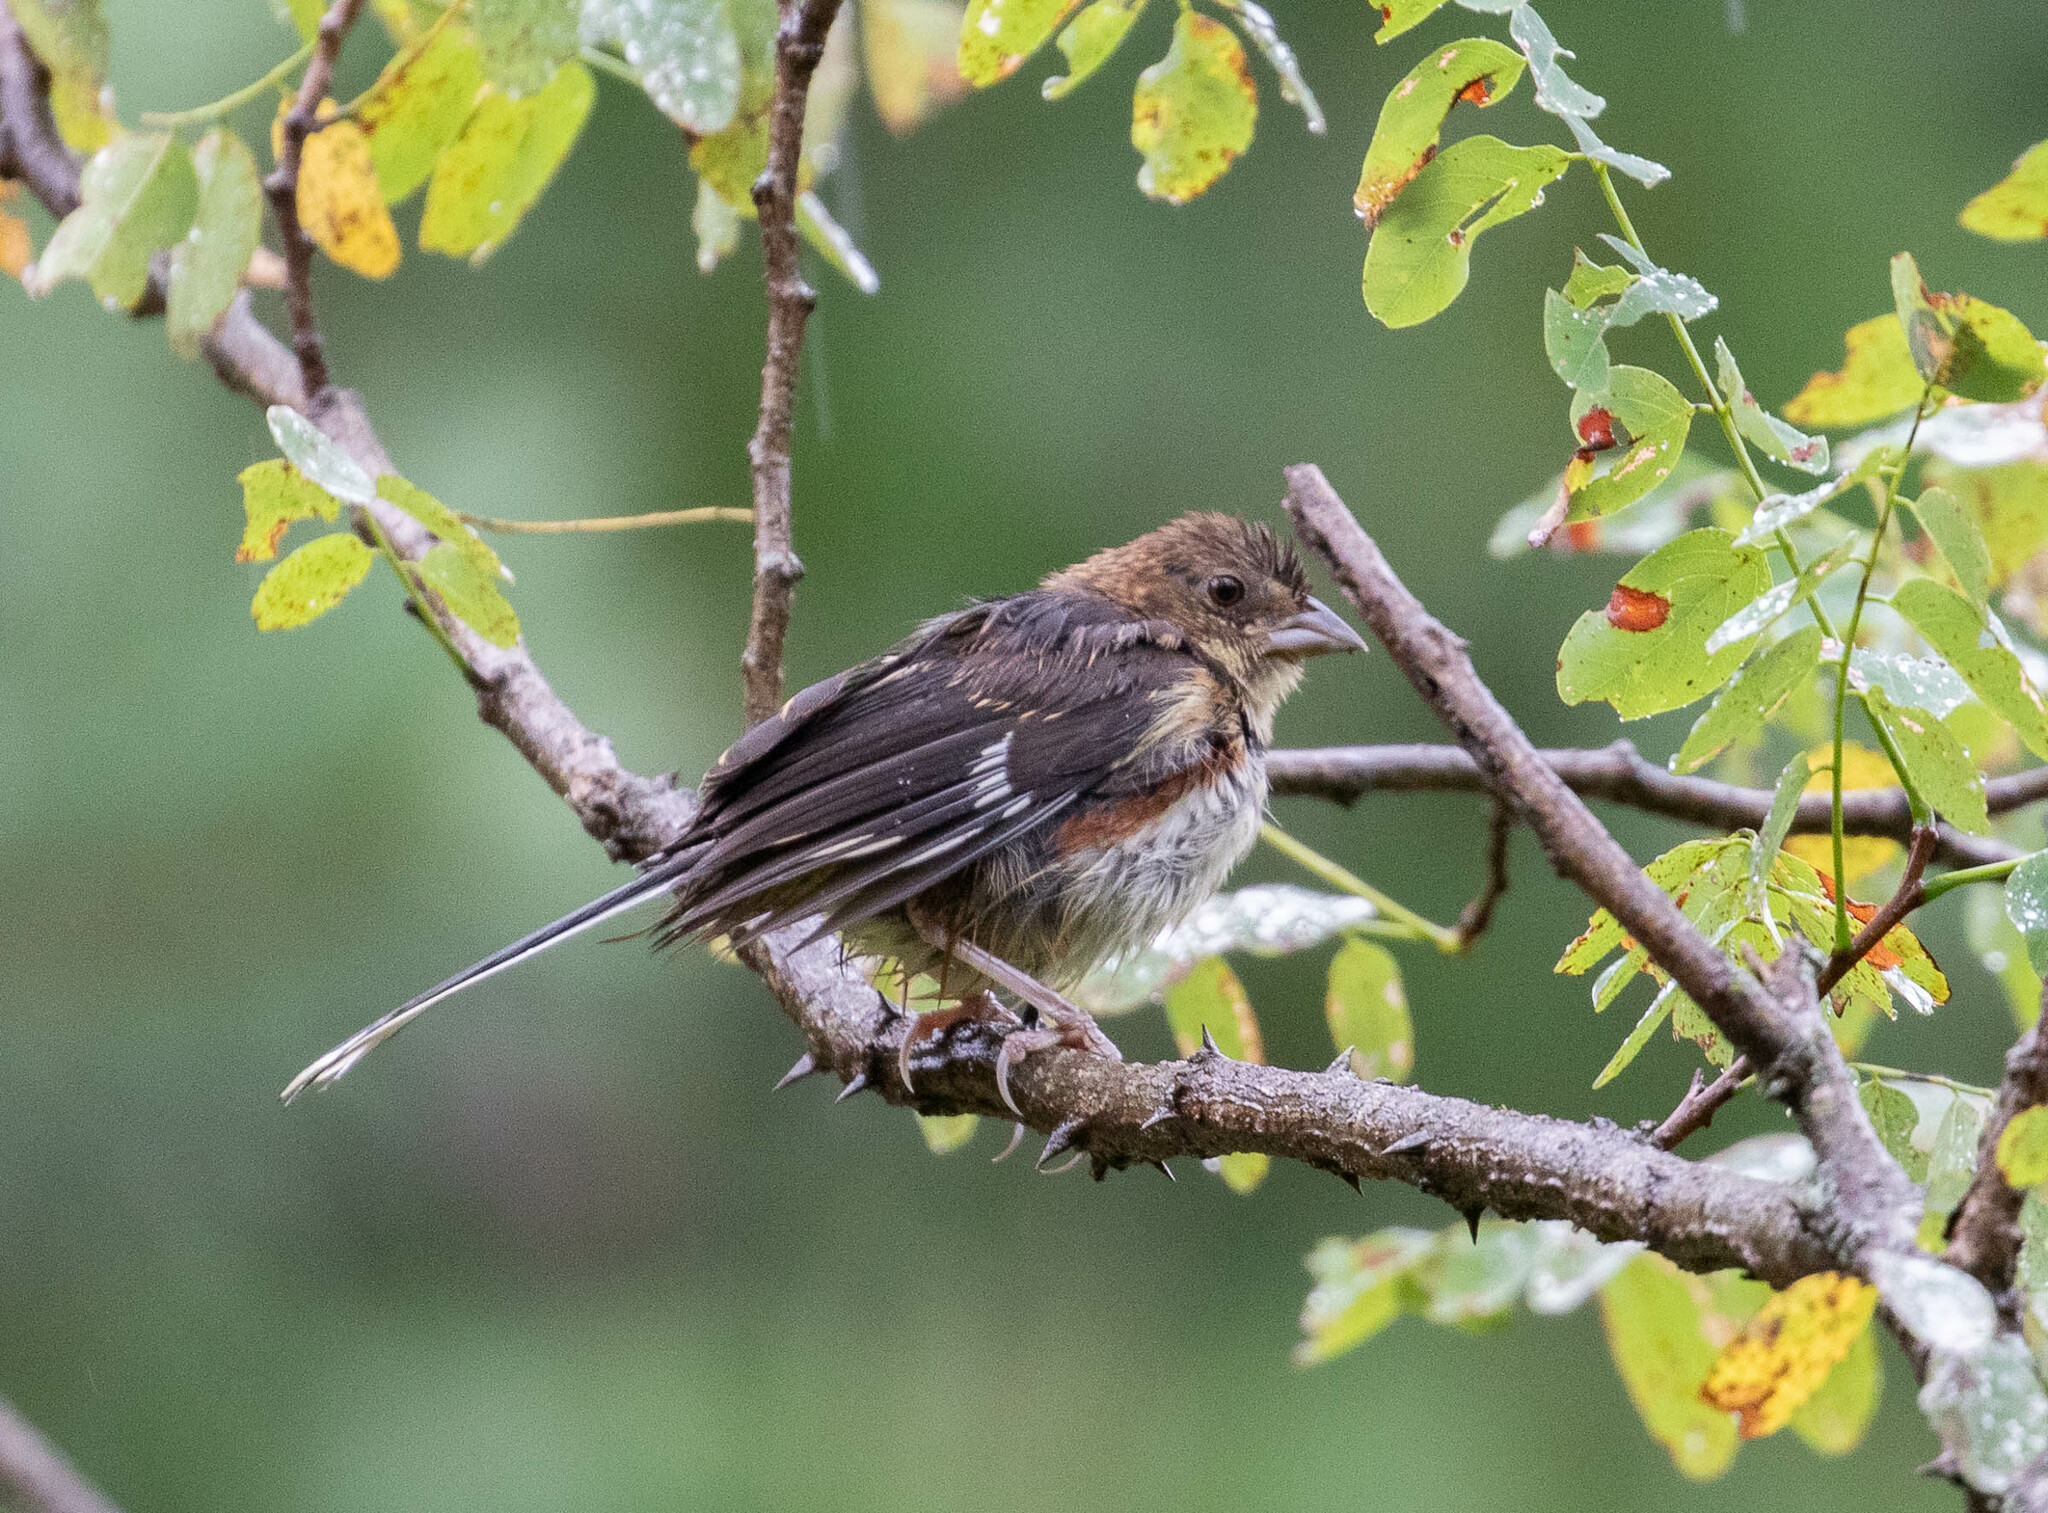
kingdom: Animalia
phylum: Chordata
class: Aves
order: Passeriformes
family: Passerellidae
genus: Pipilo
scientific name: Pipilo erythrophthalmus
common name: Eastern towhee
